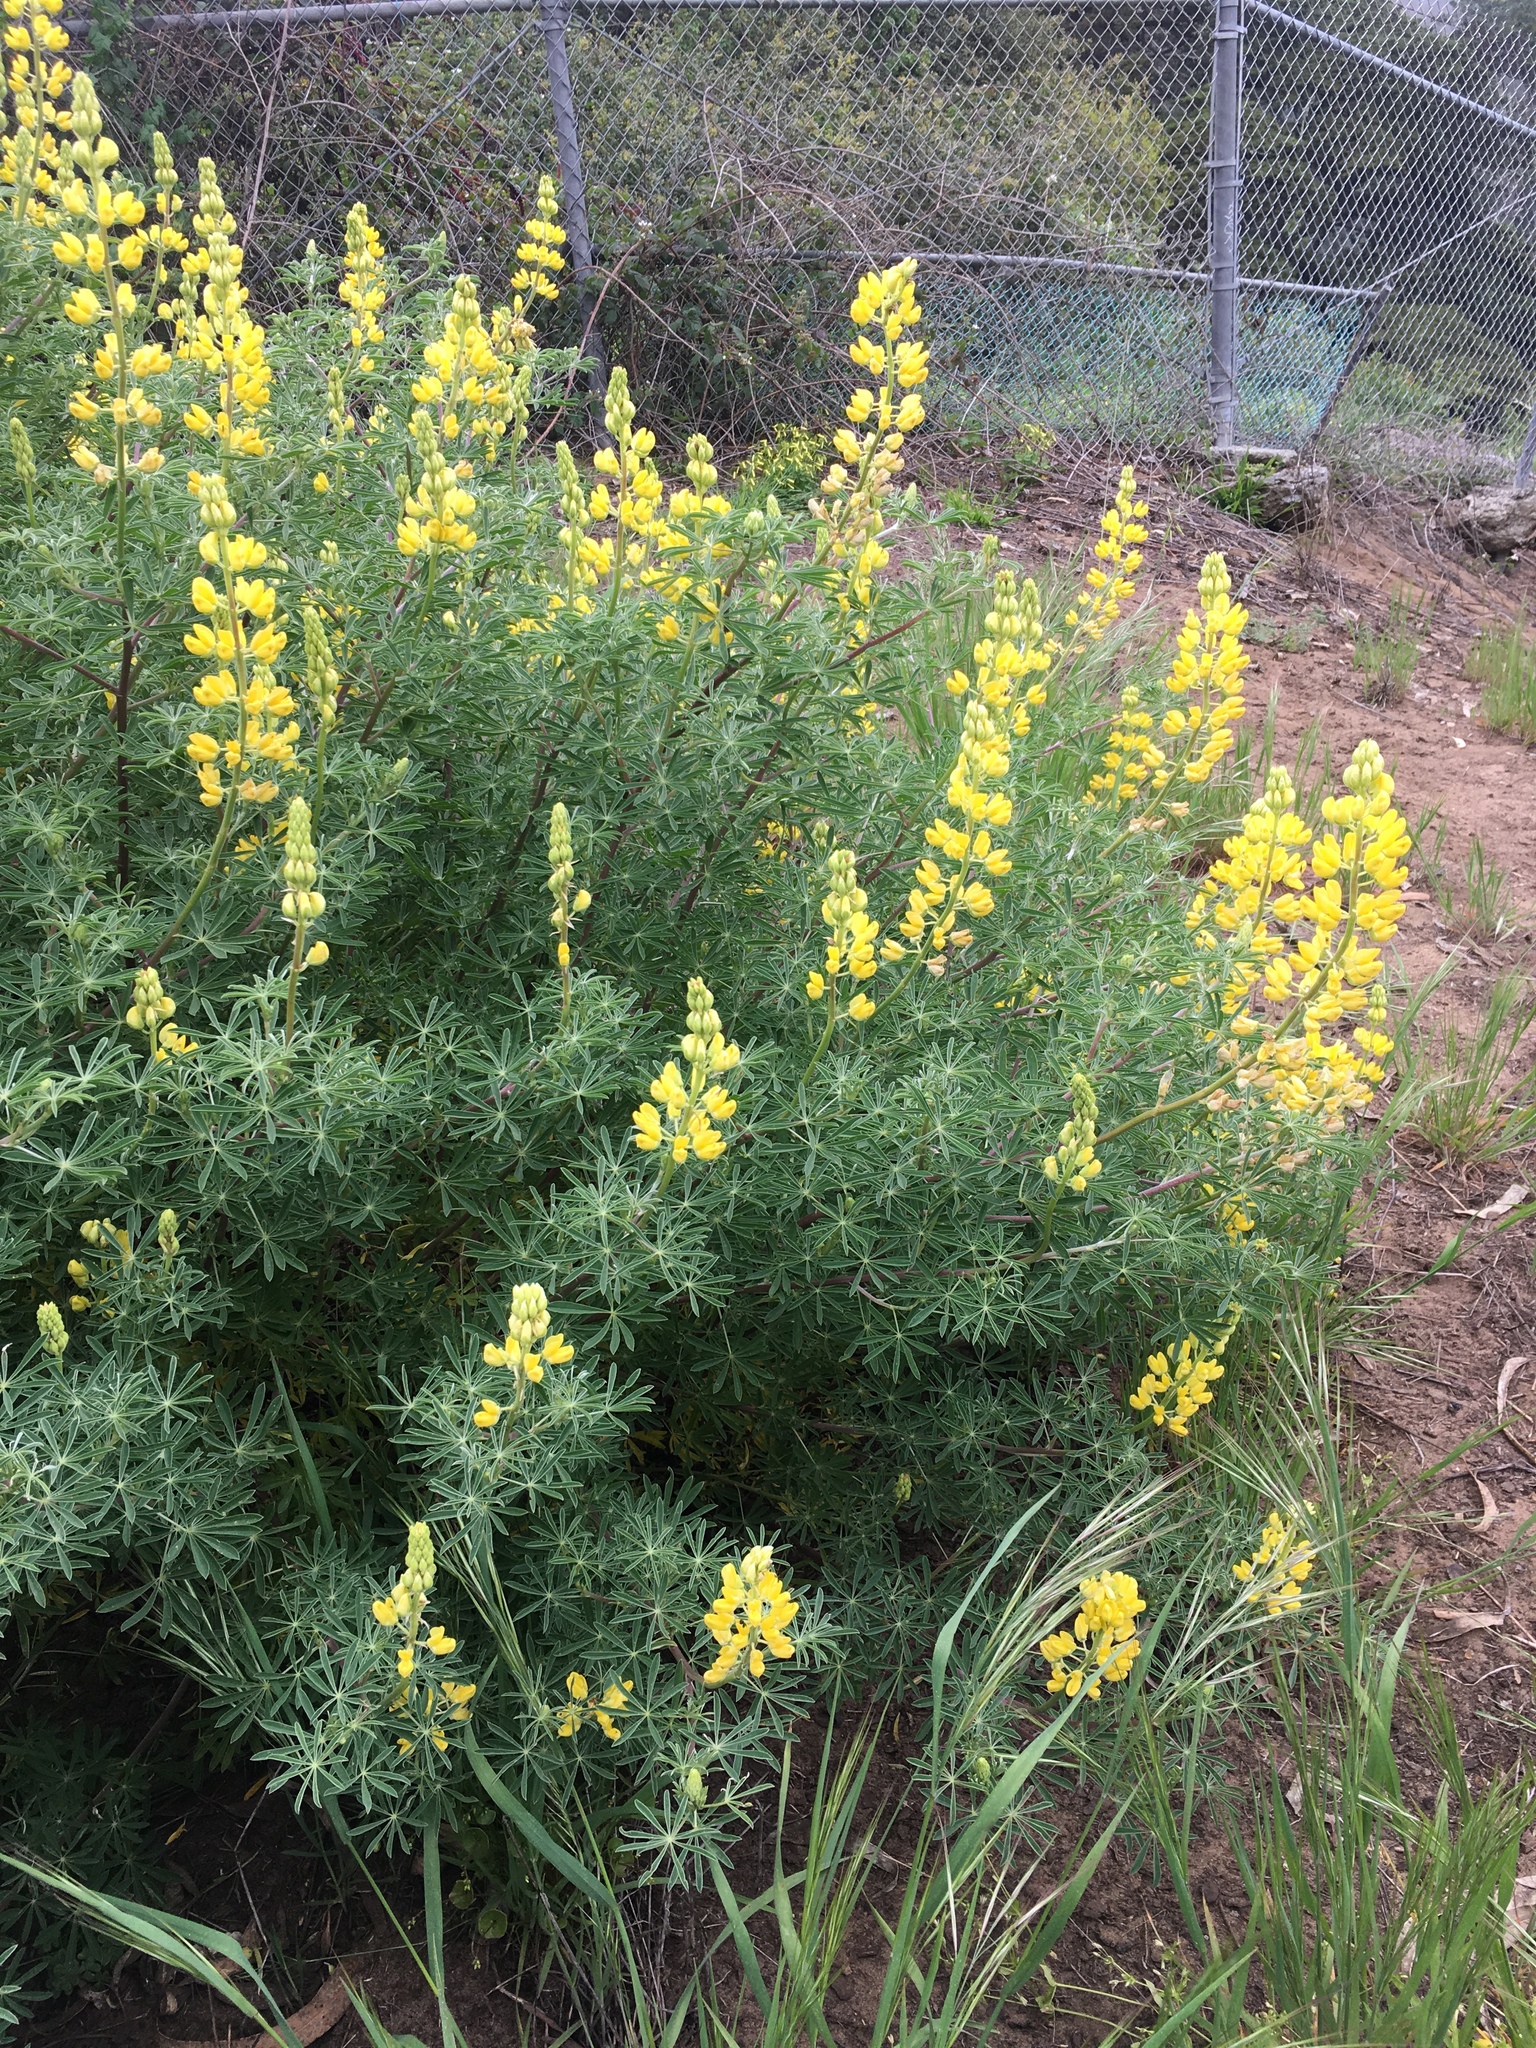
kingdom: Plantae
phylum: Tracheophyta
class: Magnoliopsida
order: Fabales
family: Fabaceae
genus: Lupinus
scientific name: Lupinus arboreus
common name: Yellow bush lupine
